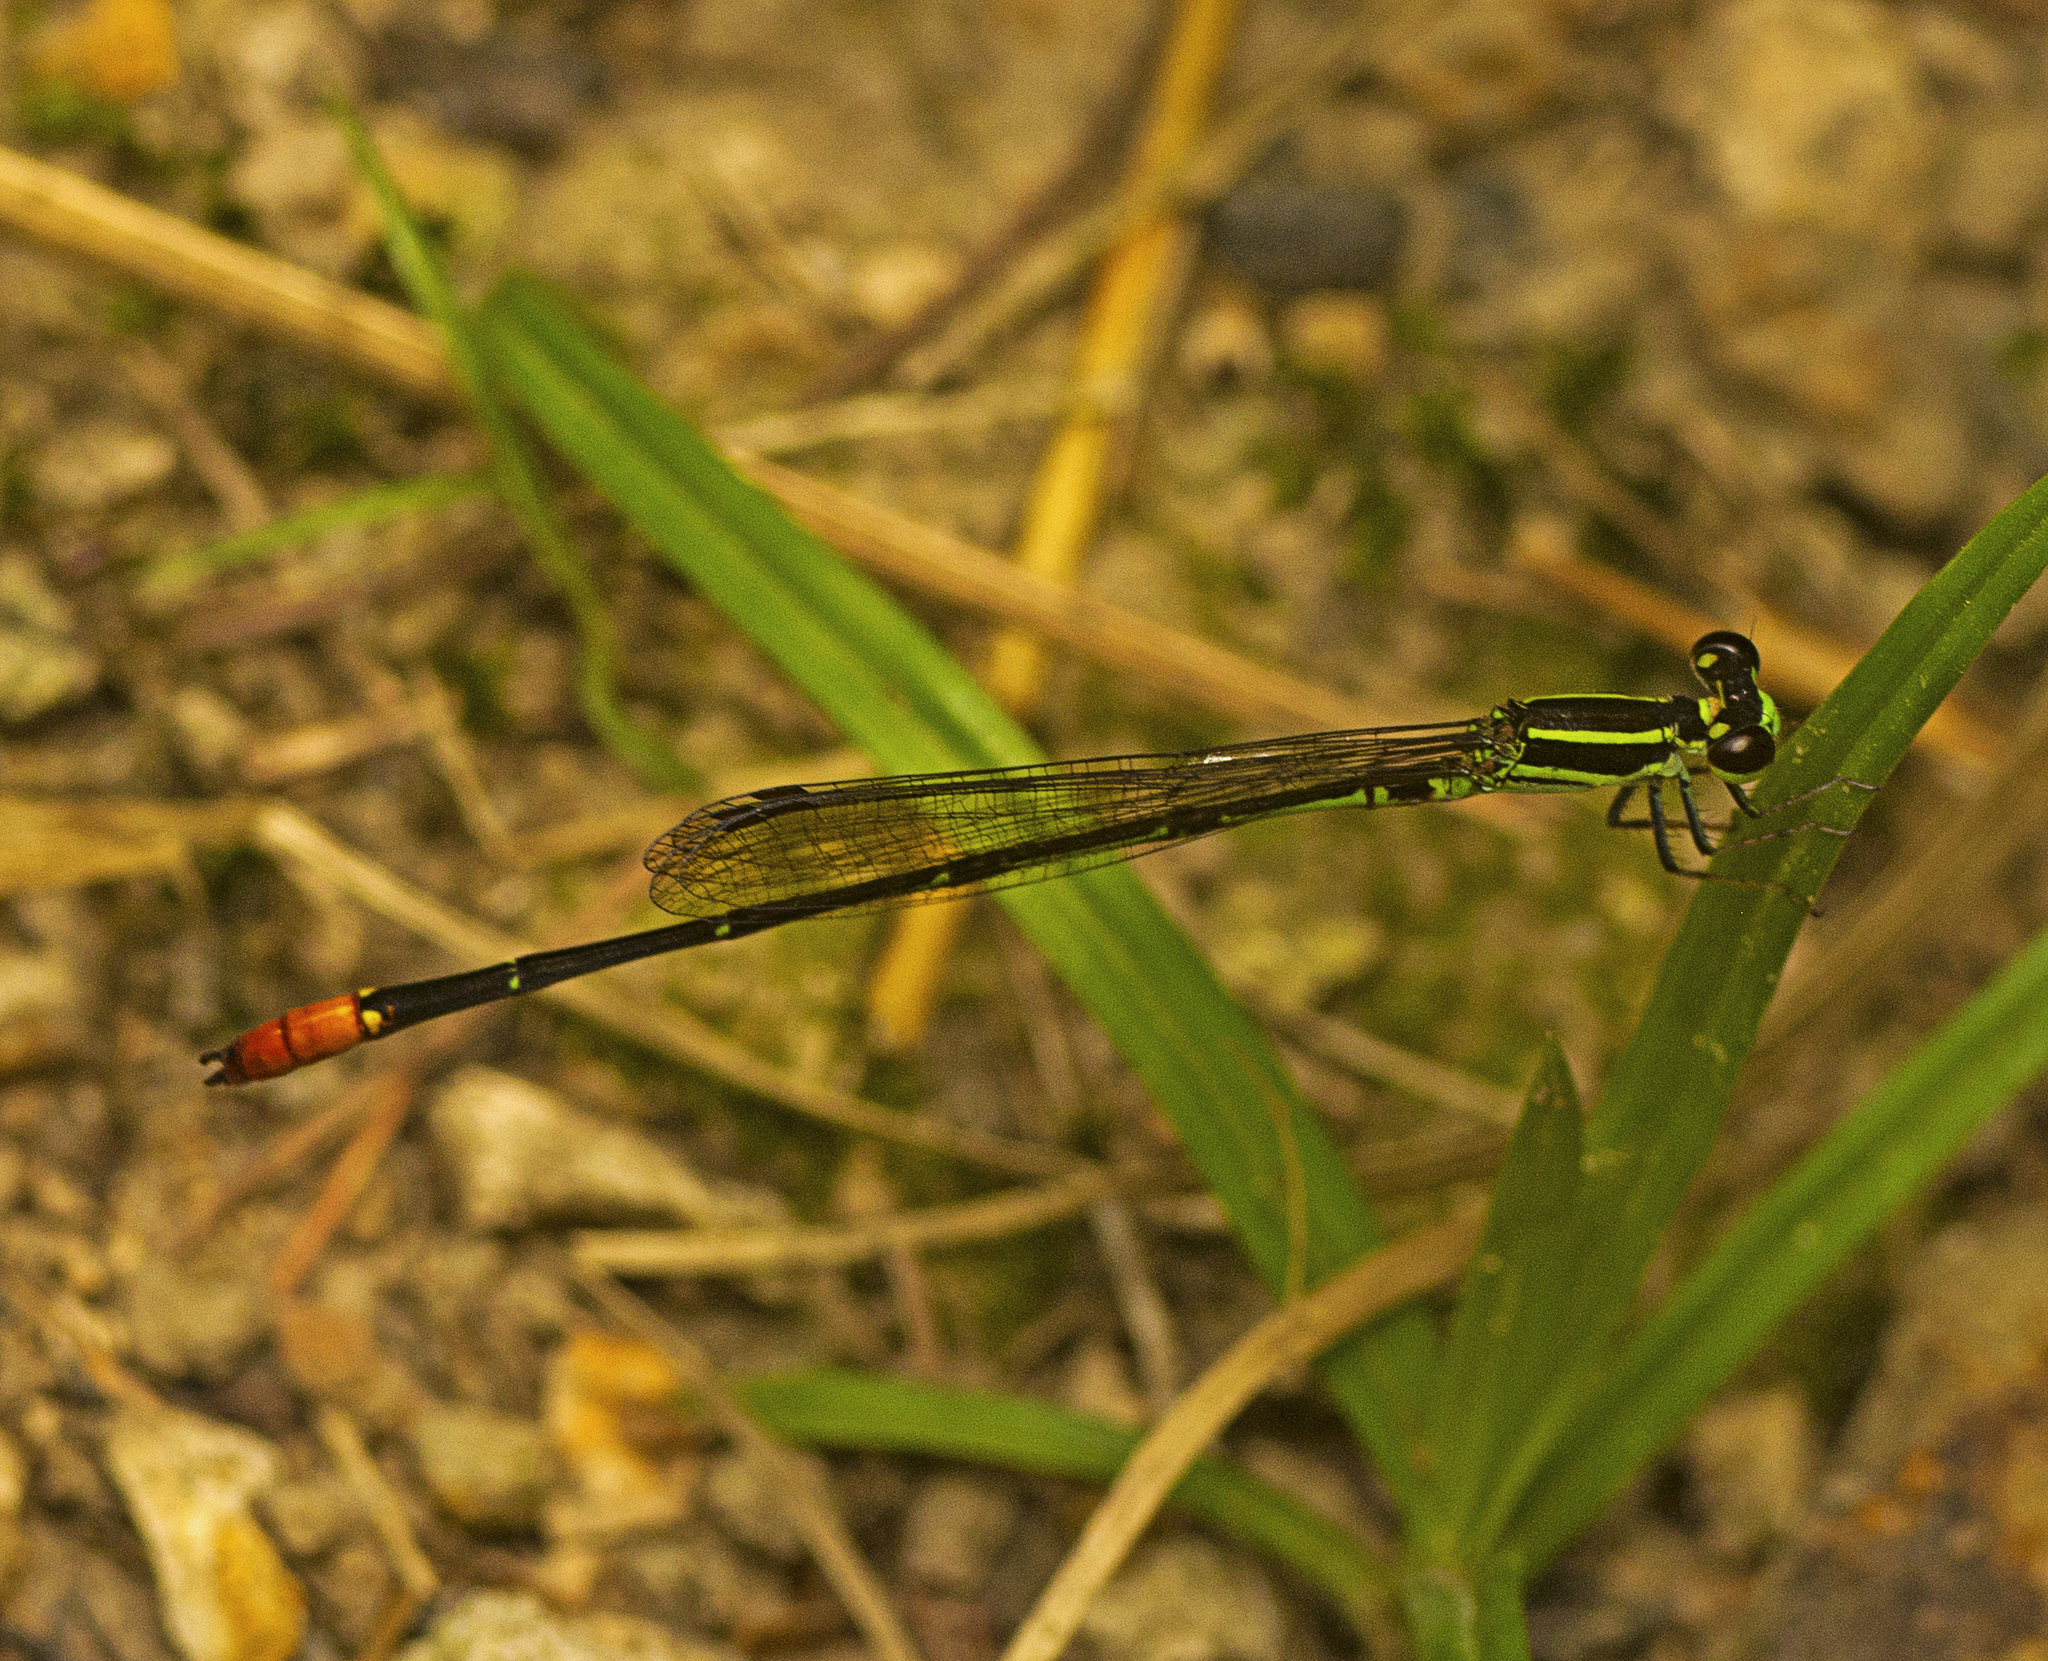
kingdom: Animalia
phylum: Arthropoda
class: Insecta
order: Odonata
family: Coenagrionidae
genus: Argiocnemis
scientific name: Argiocnemis rubescens
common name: Red-tipped shadefly
